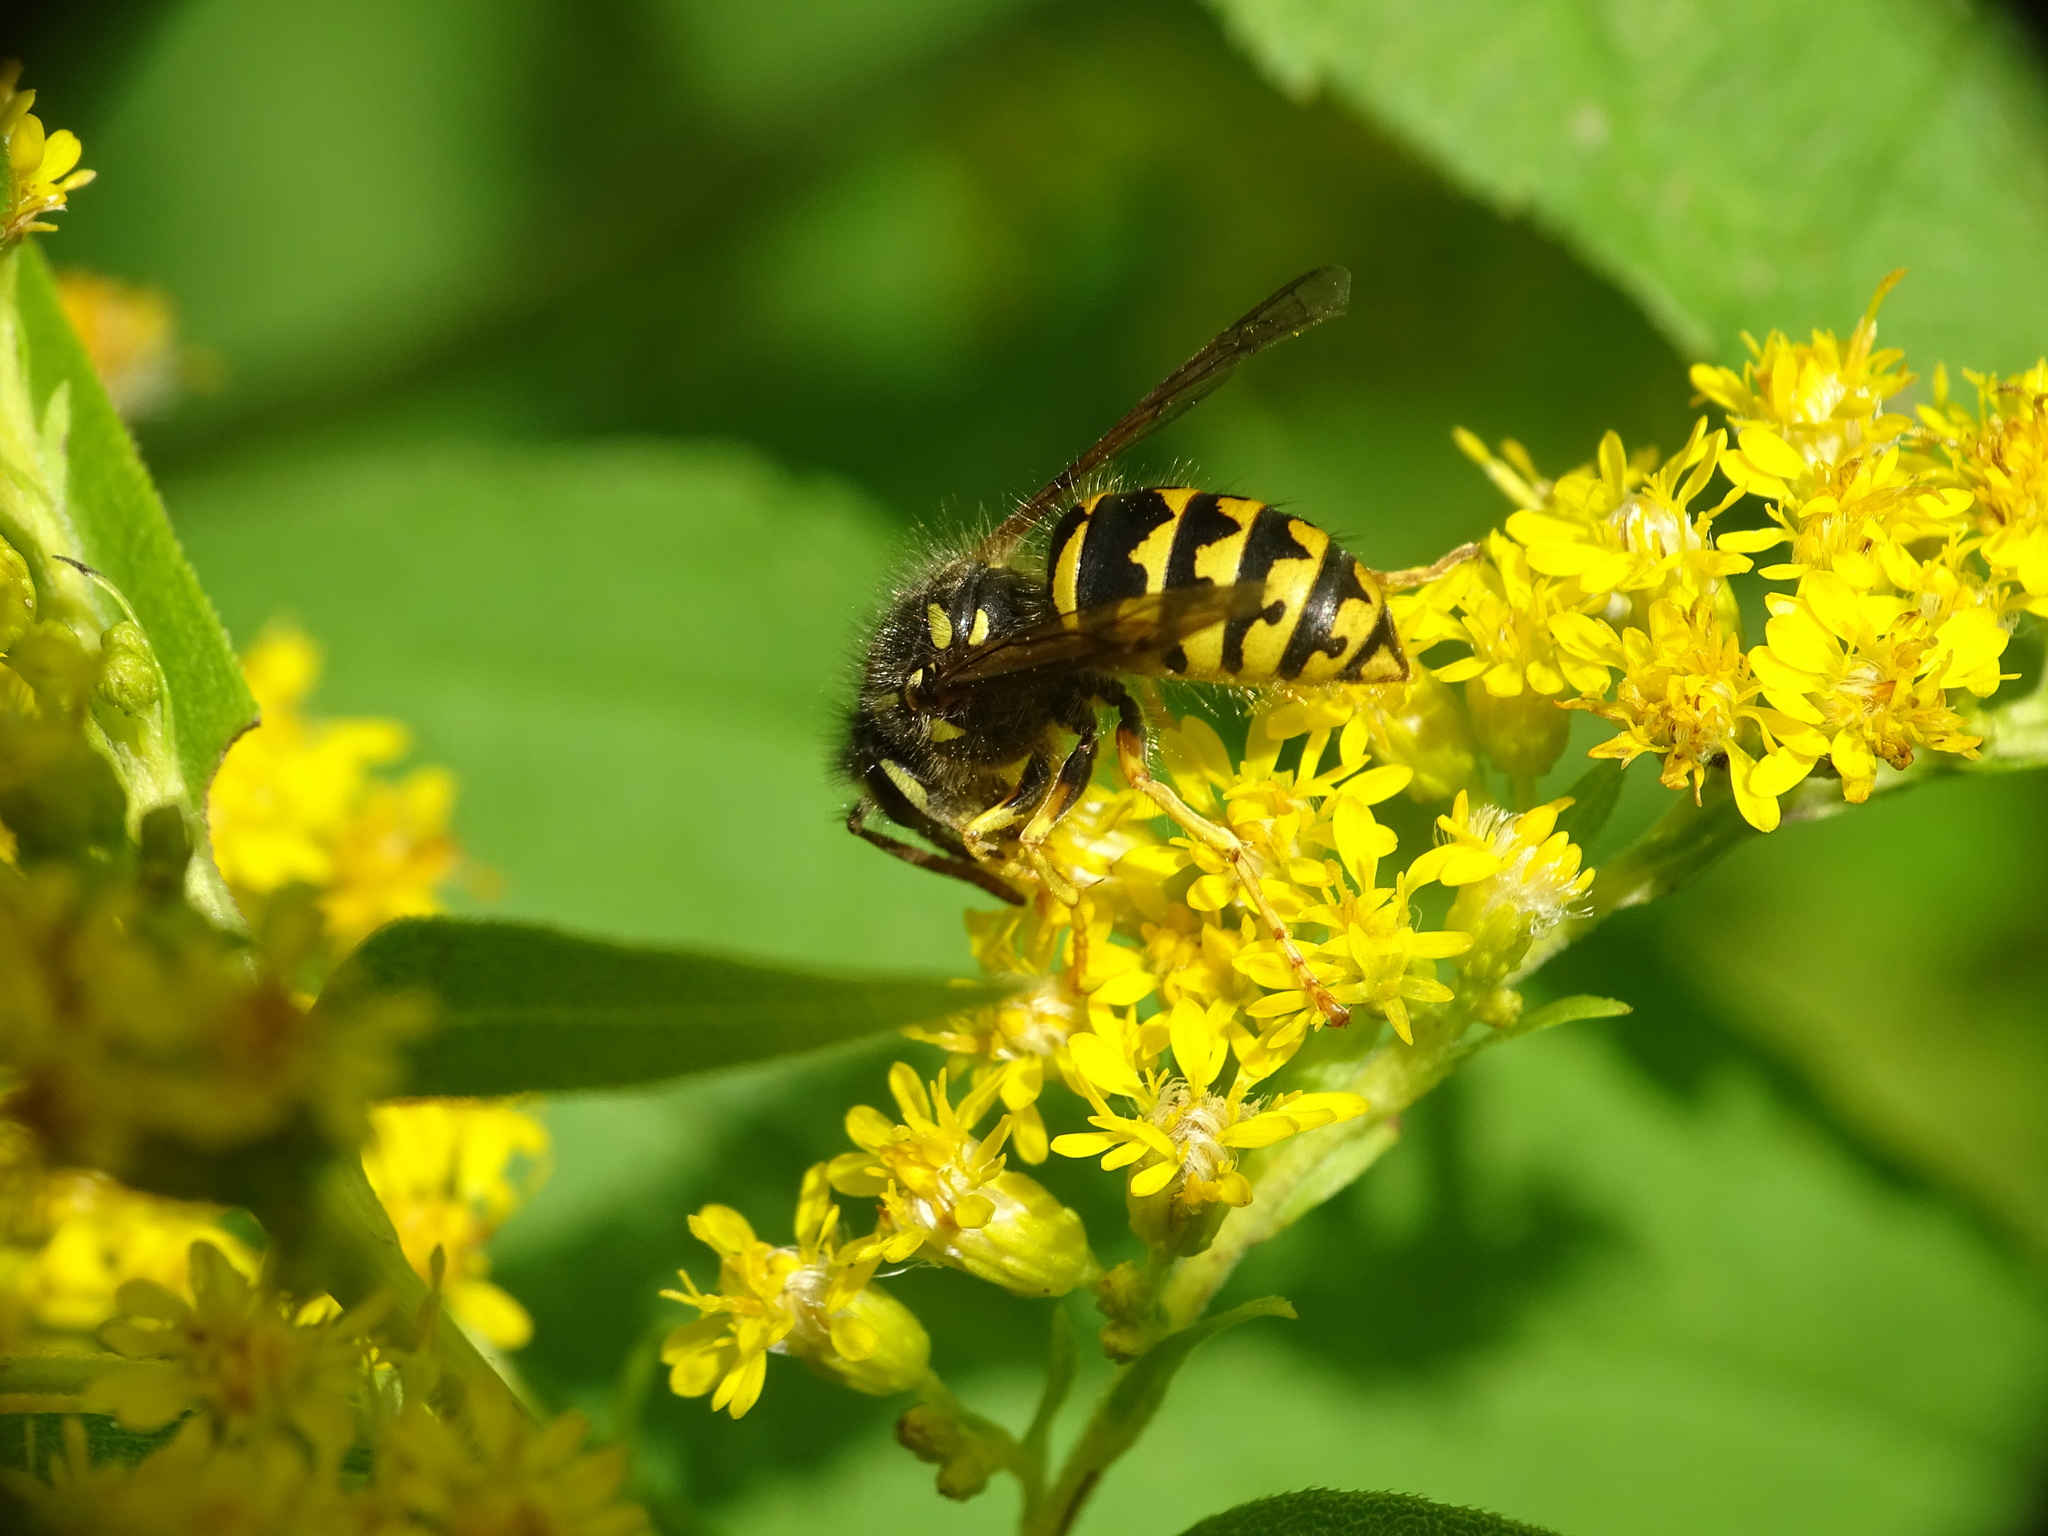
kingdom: Animalia
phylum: Arthropoda
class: Insecta
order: Hymenoptera
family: Vespidae
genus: Dolichovespula
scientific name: Dolichovespula arenaria
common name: Aerial yellowjacket
